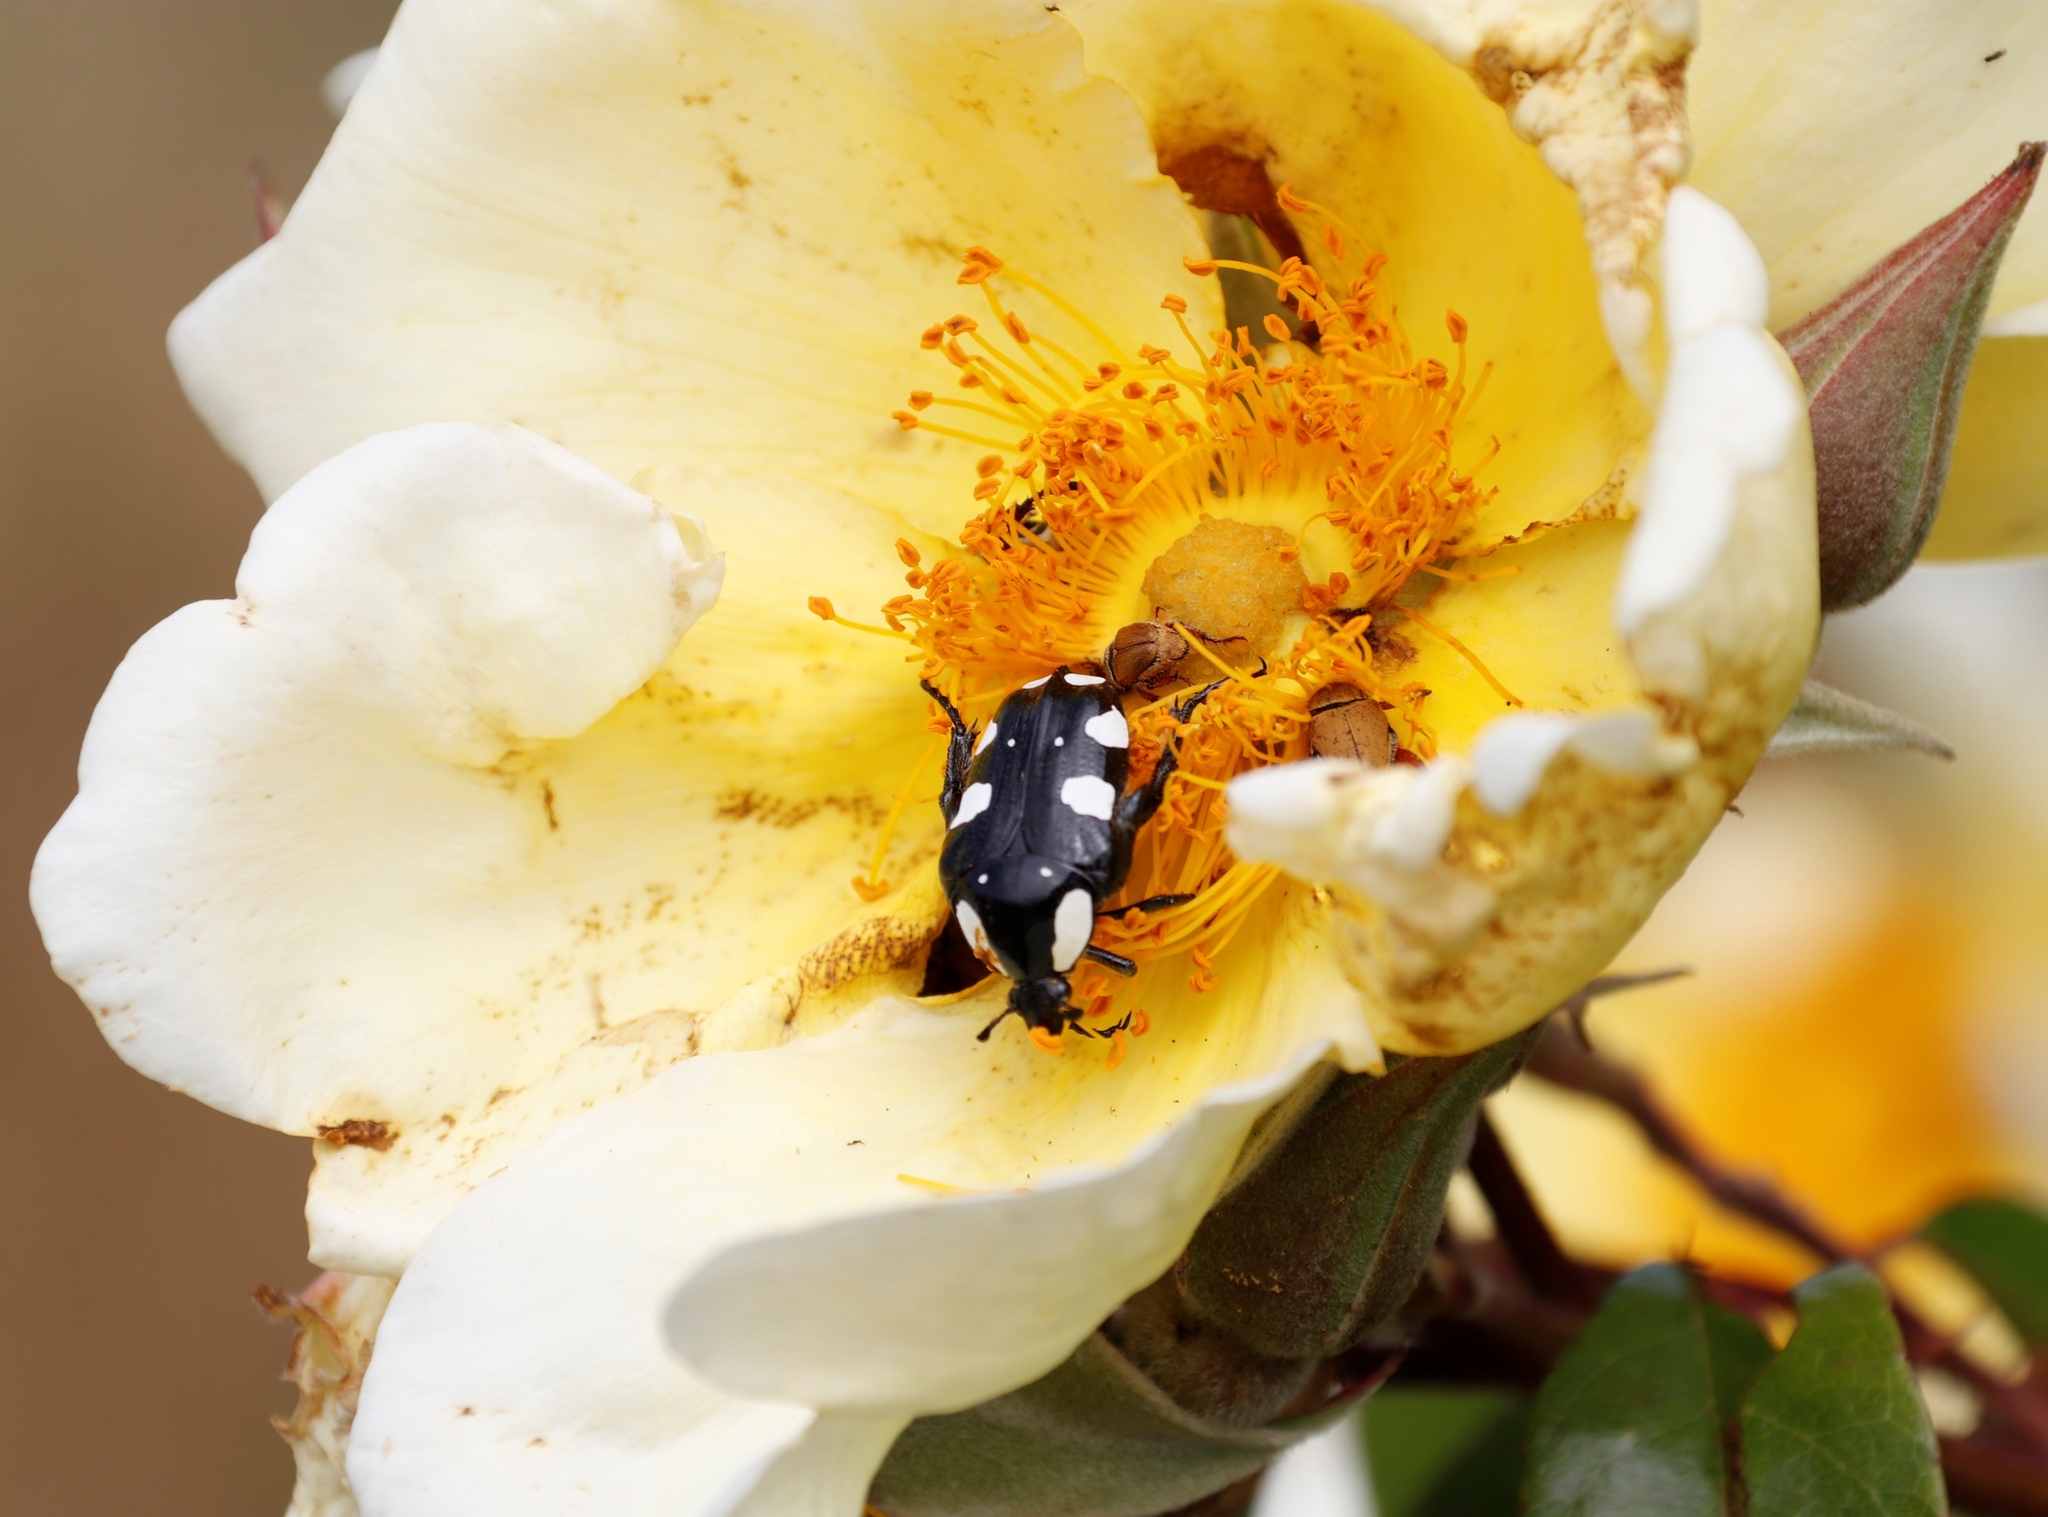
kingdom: Animalia
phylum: Arthropoda
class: Insecta
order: Coleoptera
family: Scarabaeidae
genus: Mausoleopsis
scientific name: Mausoleopsis amabilis
